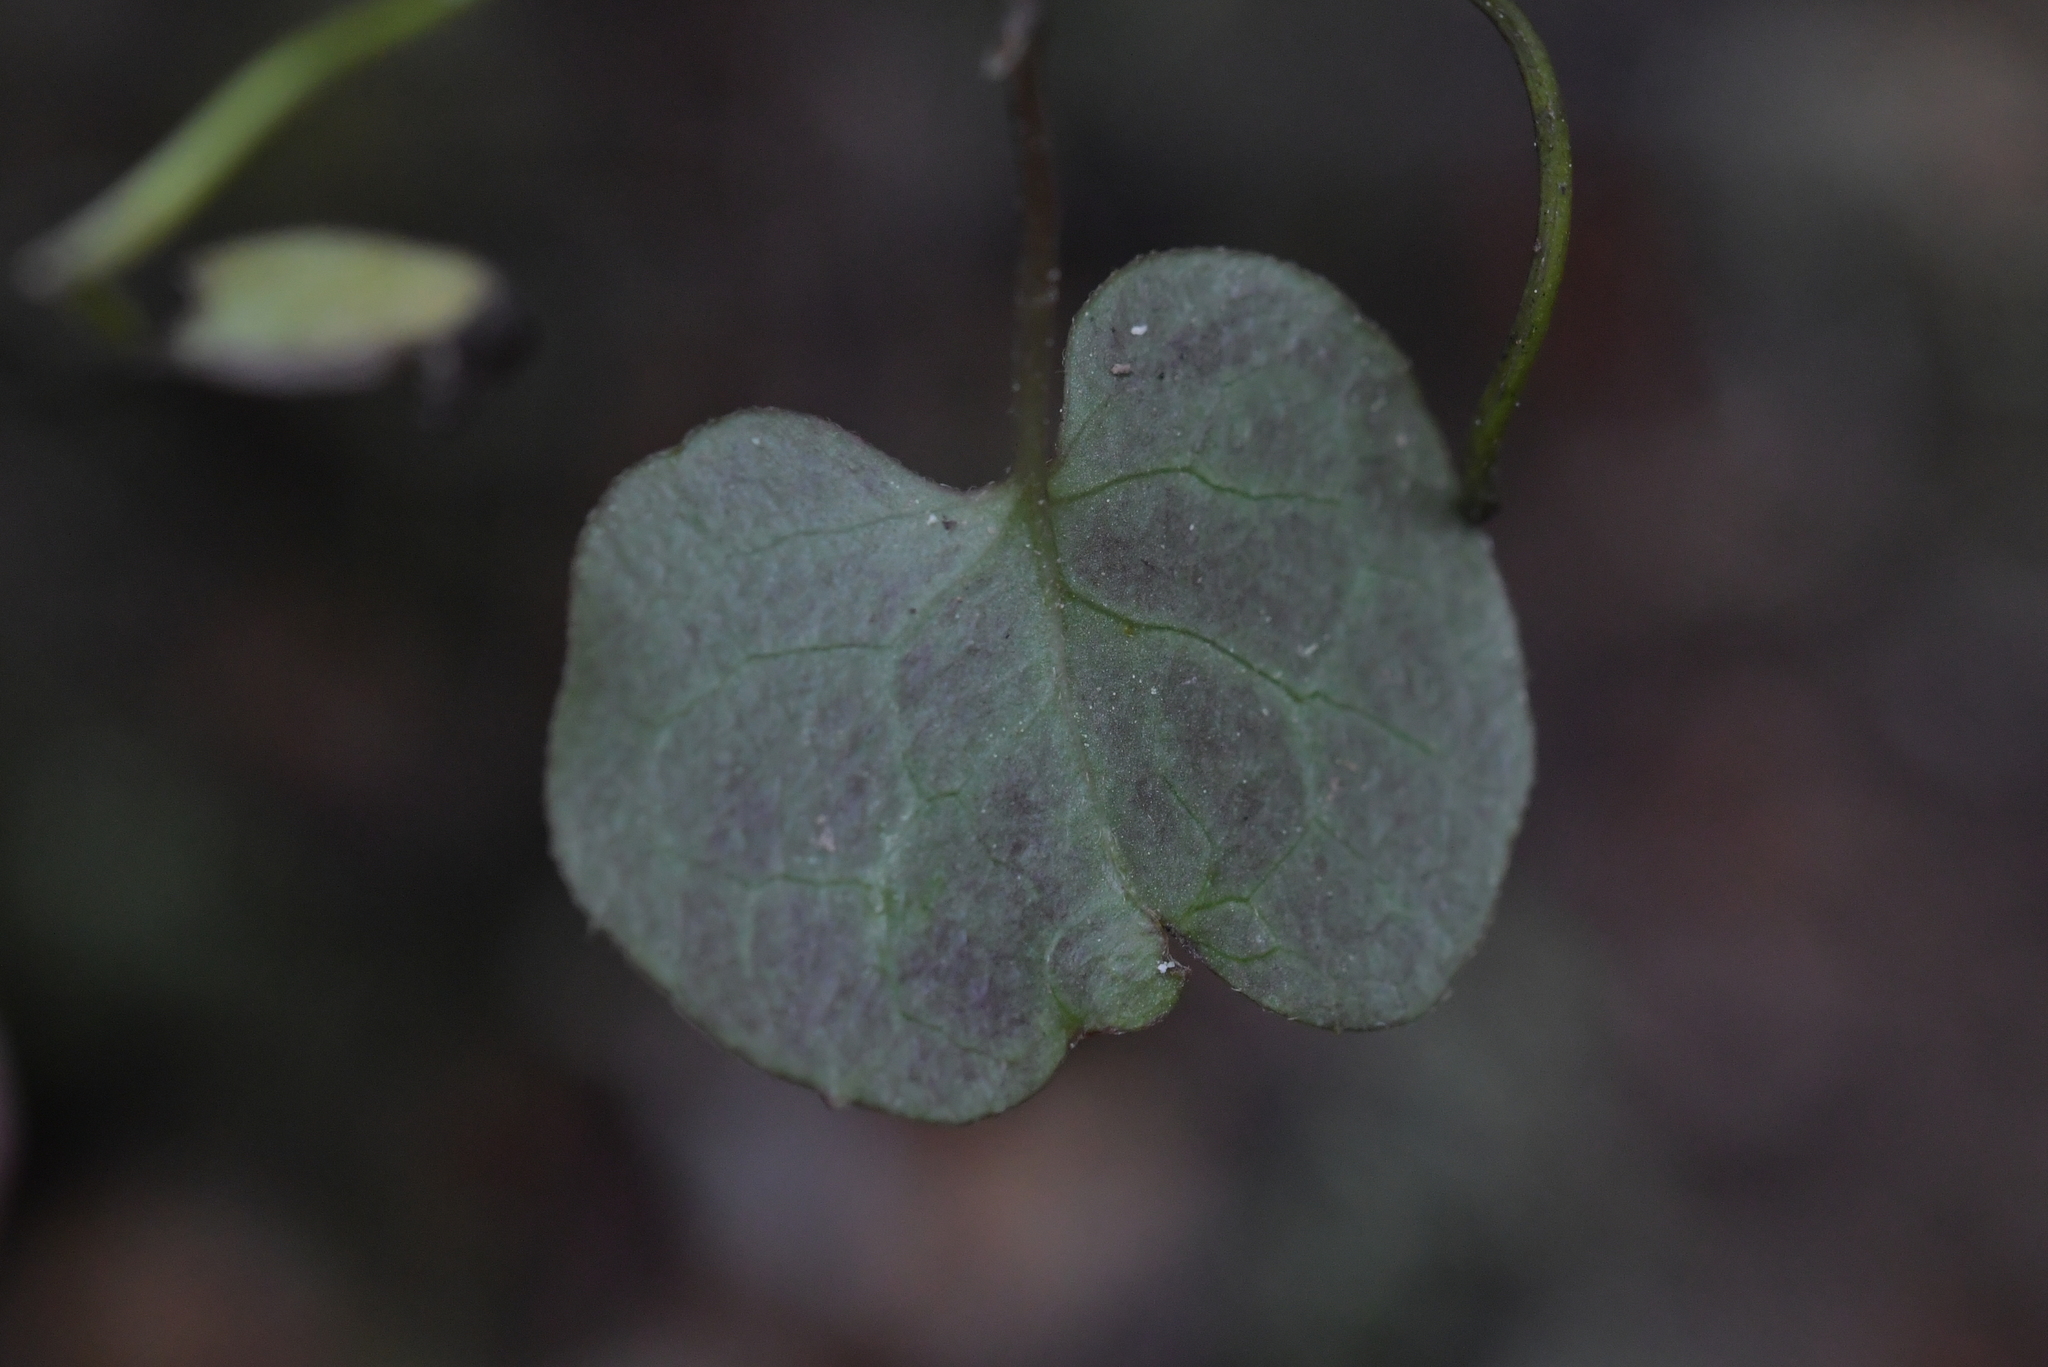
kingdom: Plantae
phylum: Tracheophyta
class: Magnoliopsida
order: Caryophyllales
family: Polygonaceae
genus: Muehlenbeckia
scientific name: Muehlenbeckia australis
